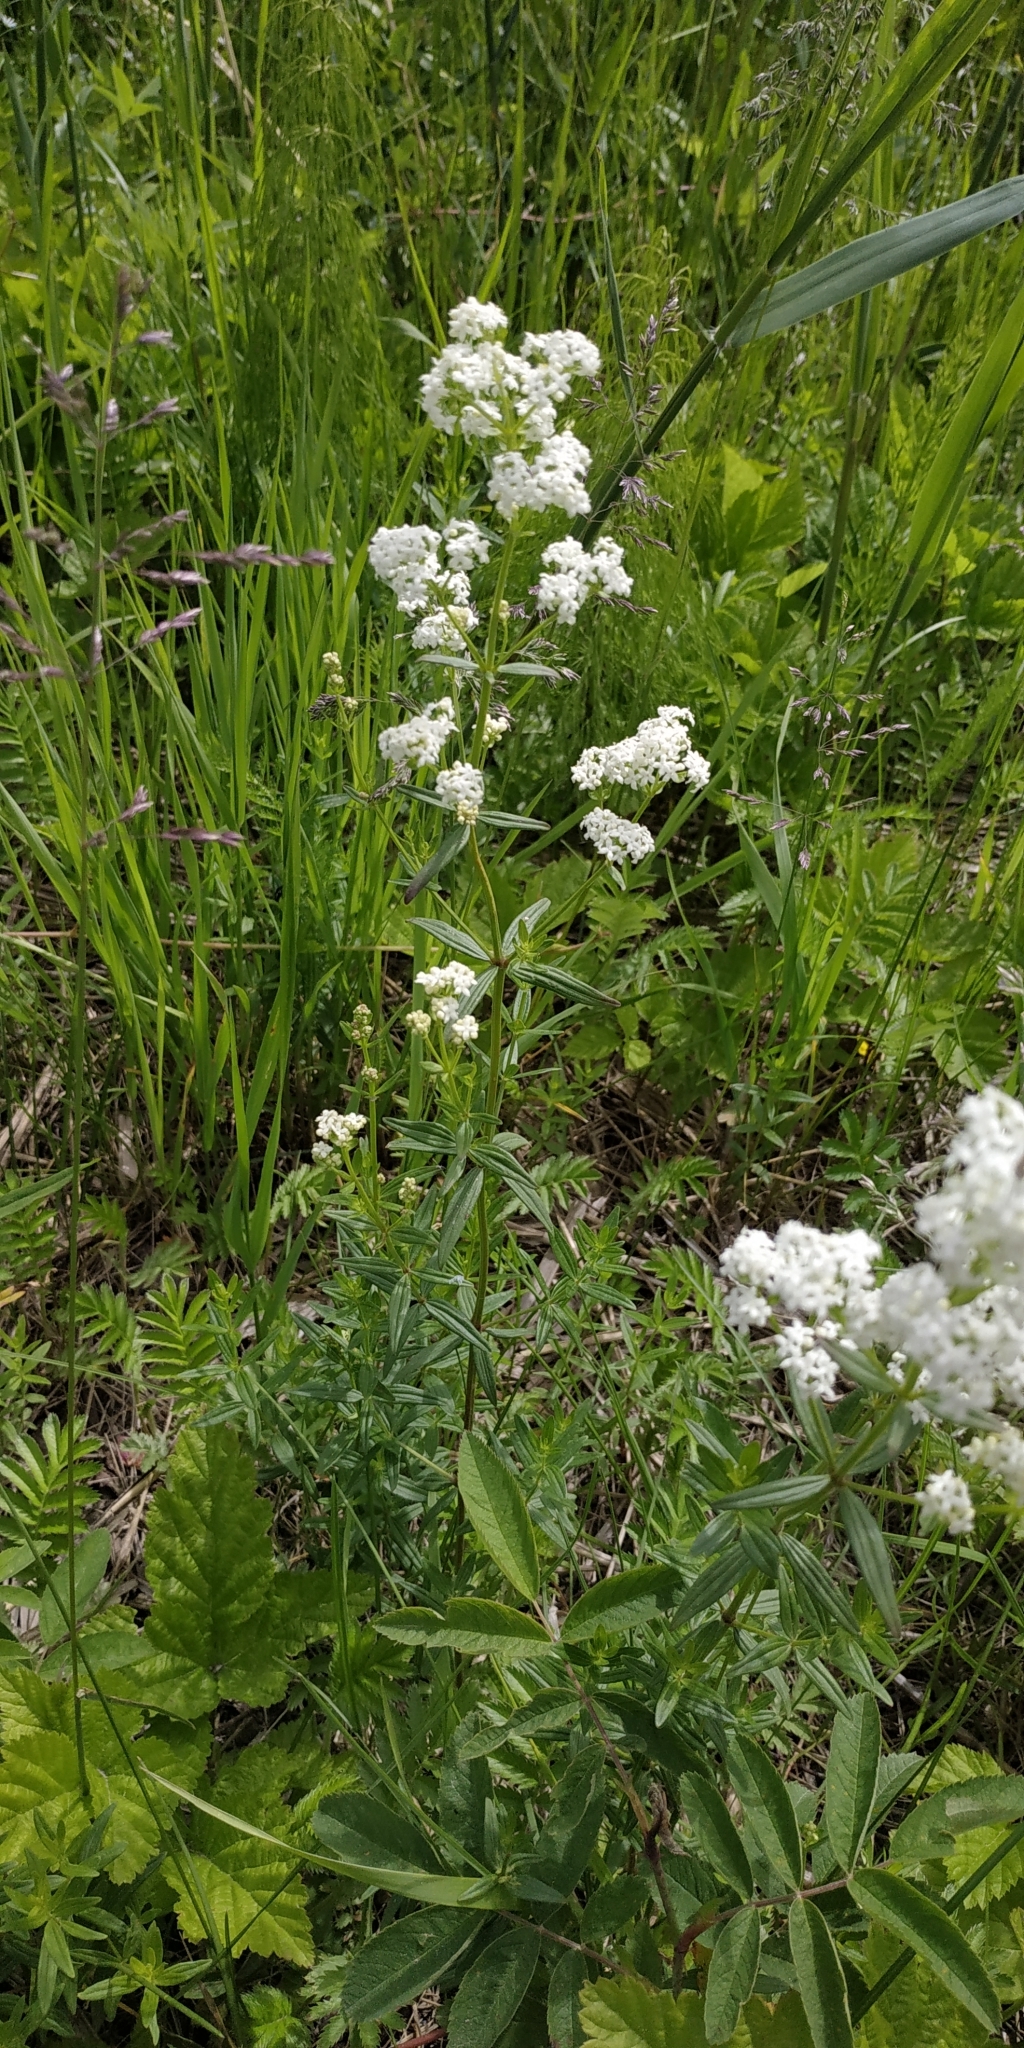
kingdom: Plantae
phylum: Tracheophyta
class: Magnoliopsida
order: Gentianales
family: Rubiaceae
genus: Galium
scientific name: Galium boreale
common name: Northern bedstraw
